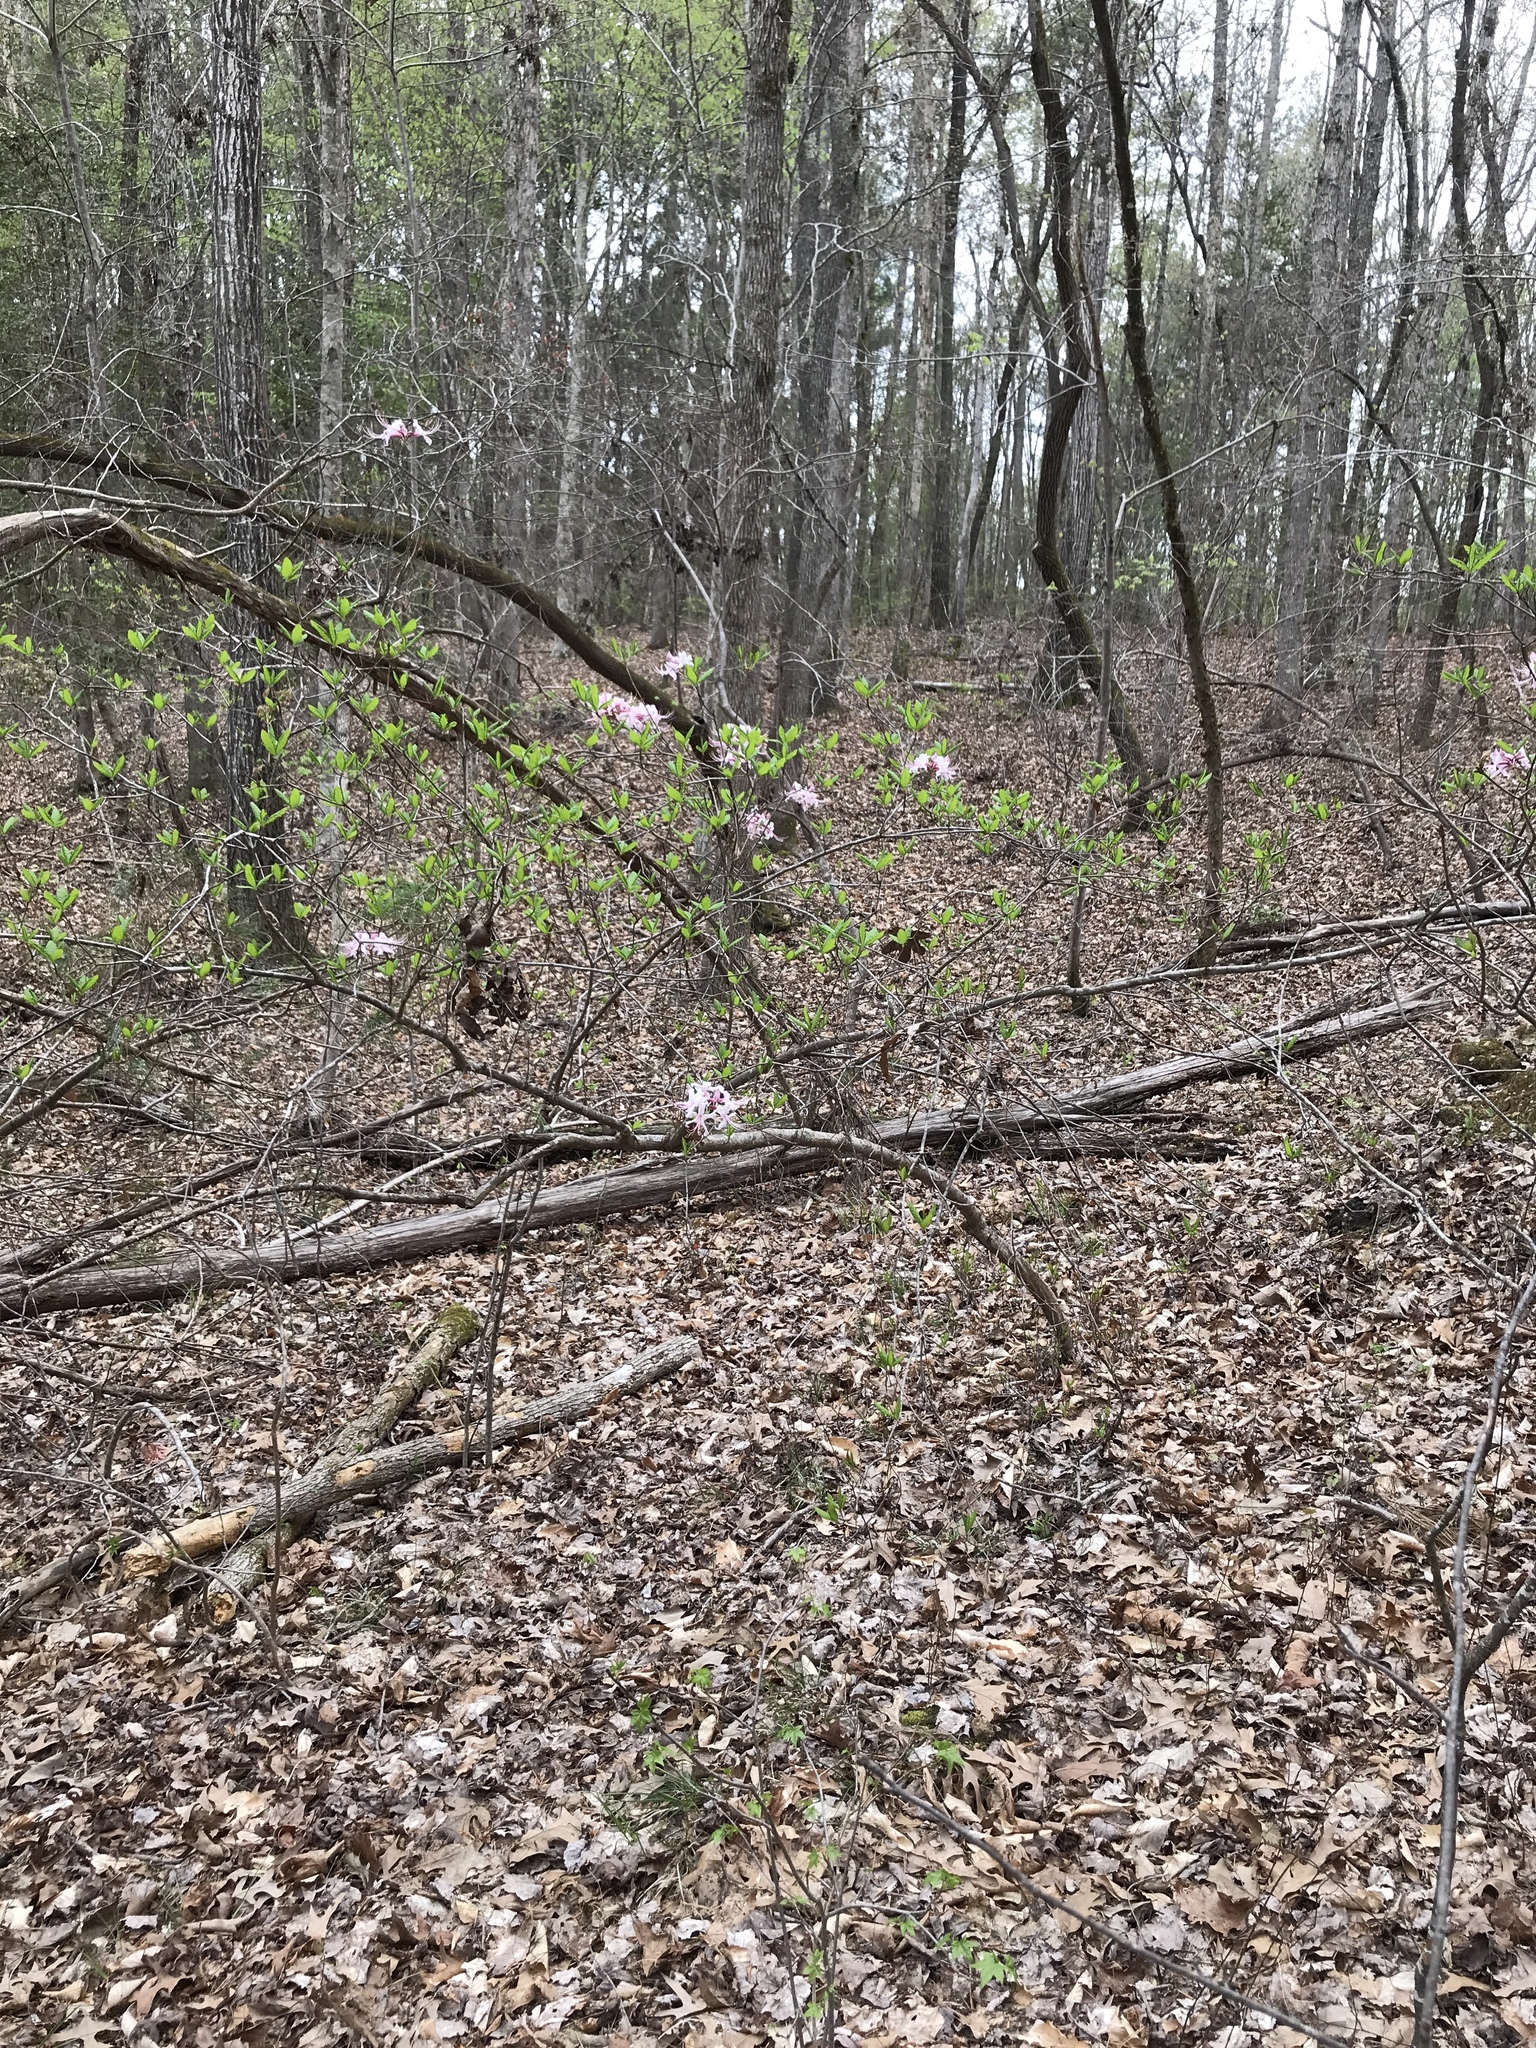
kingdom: Plantae
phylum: Tracheophyta
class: Magnoliopsida
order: Ericales
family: Ericaceae
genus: Rhododendron
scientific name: Rhododendron periclymenoides
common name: Election-pink
